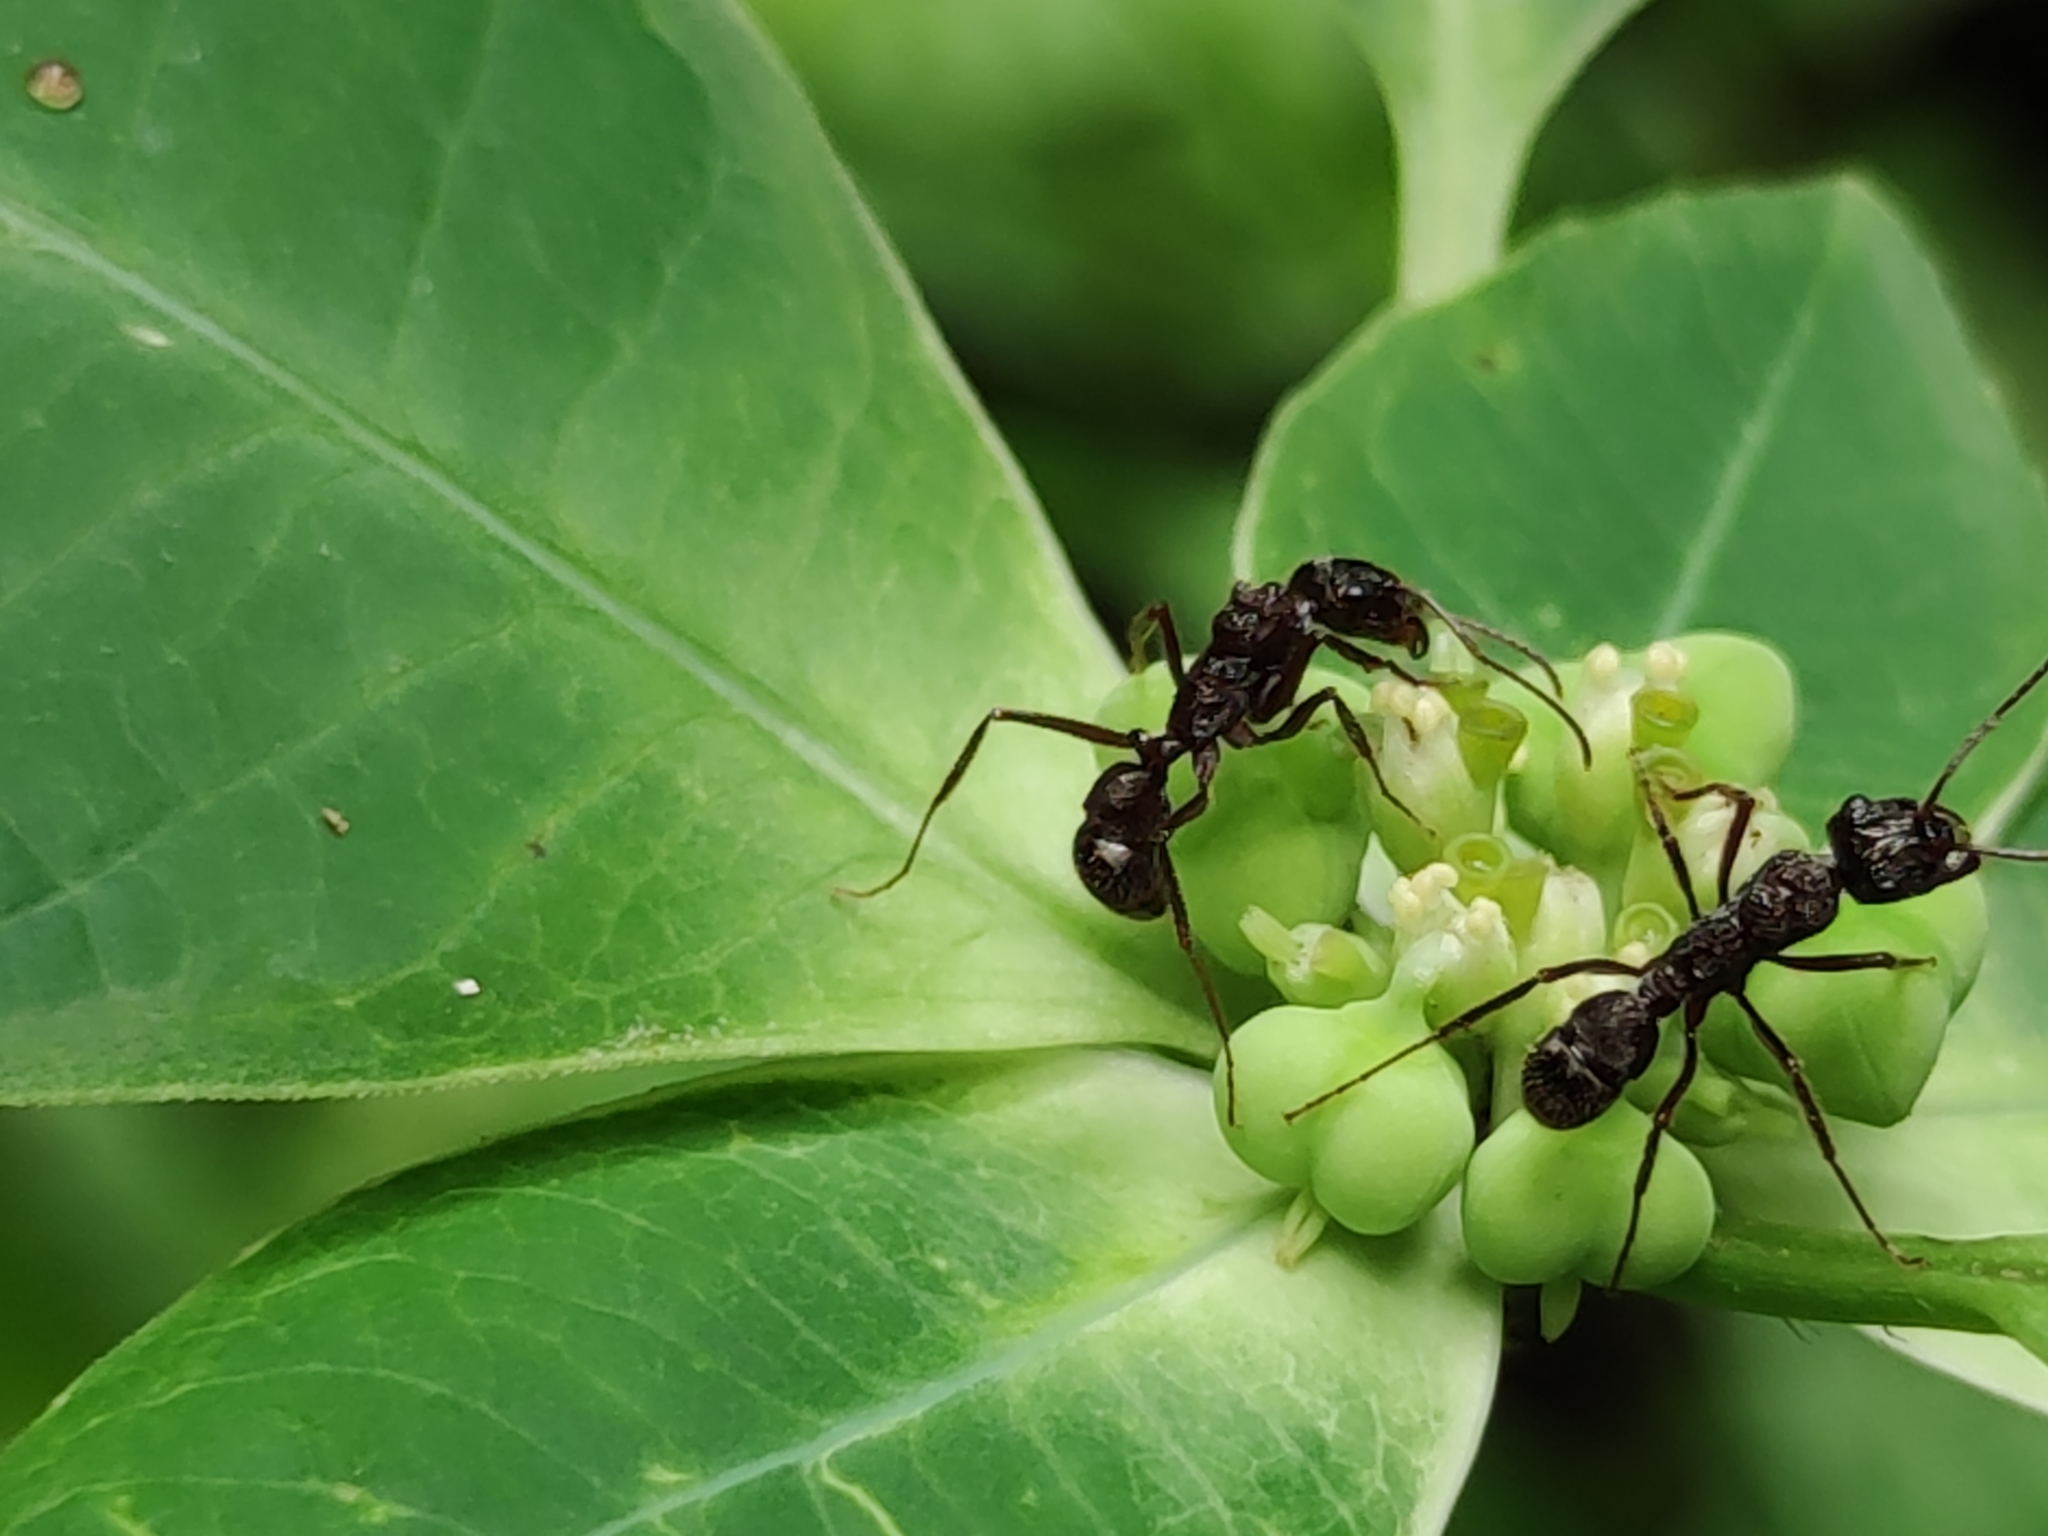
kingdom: Animalia
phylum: Arthropoda
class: Insecta
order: Hymenoptera
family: Formicidae
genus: Ectatomma
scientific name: Ectatomma ruidum
